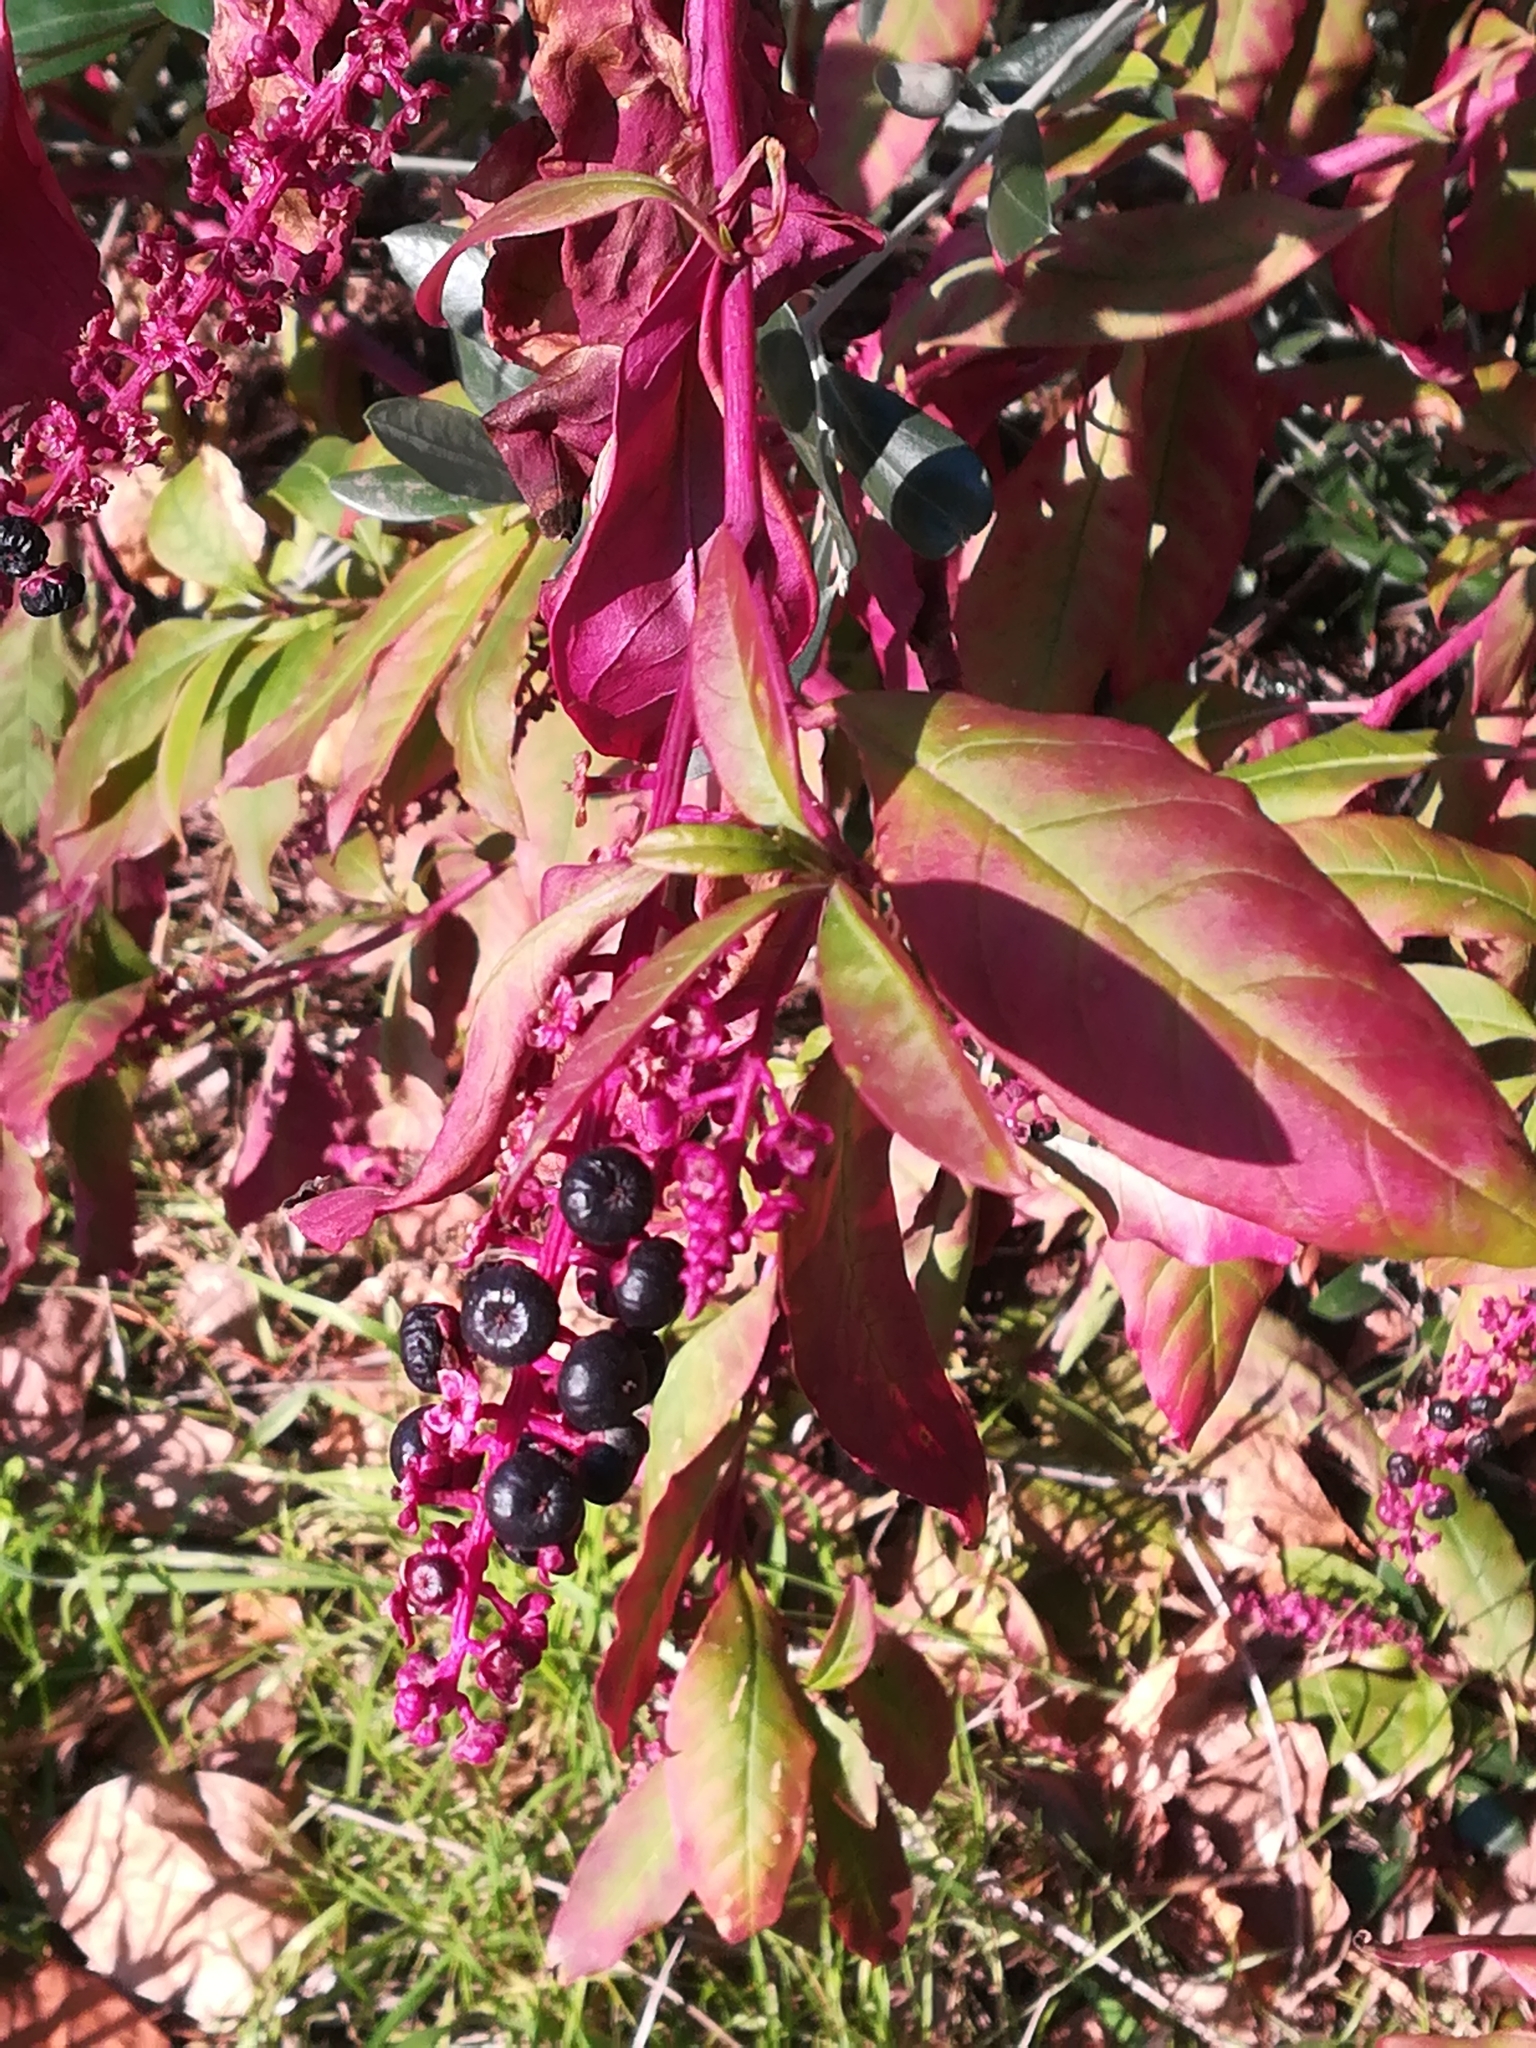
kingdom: Plantae
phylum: Tracheophyta
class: Magnoliopsida
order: Caryophyllales
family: Phytolaccaceae
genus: Phytolacca
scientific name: Phytolacca americana
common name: American pokeweed
